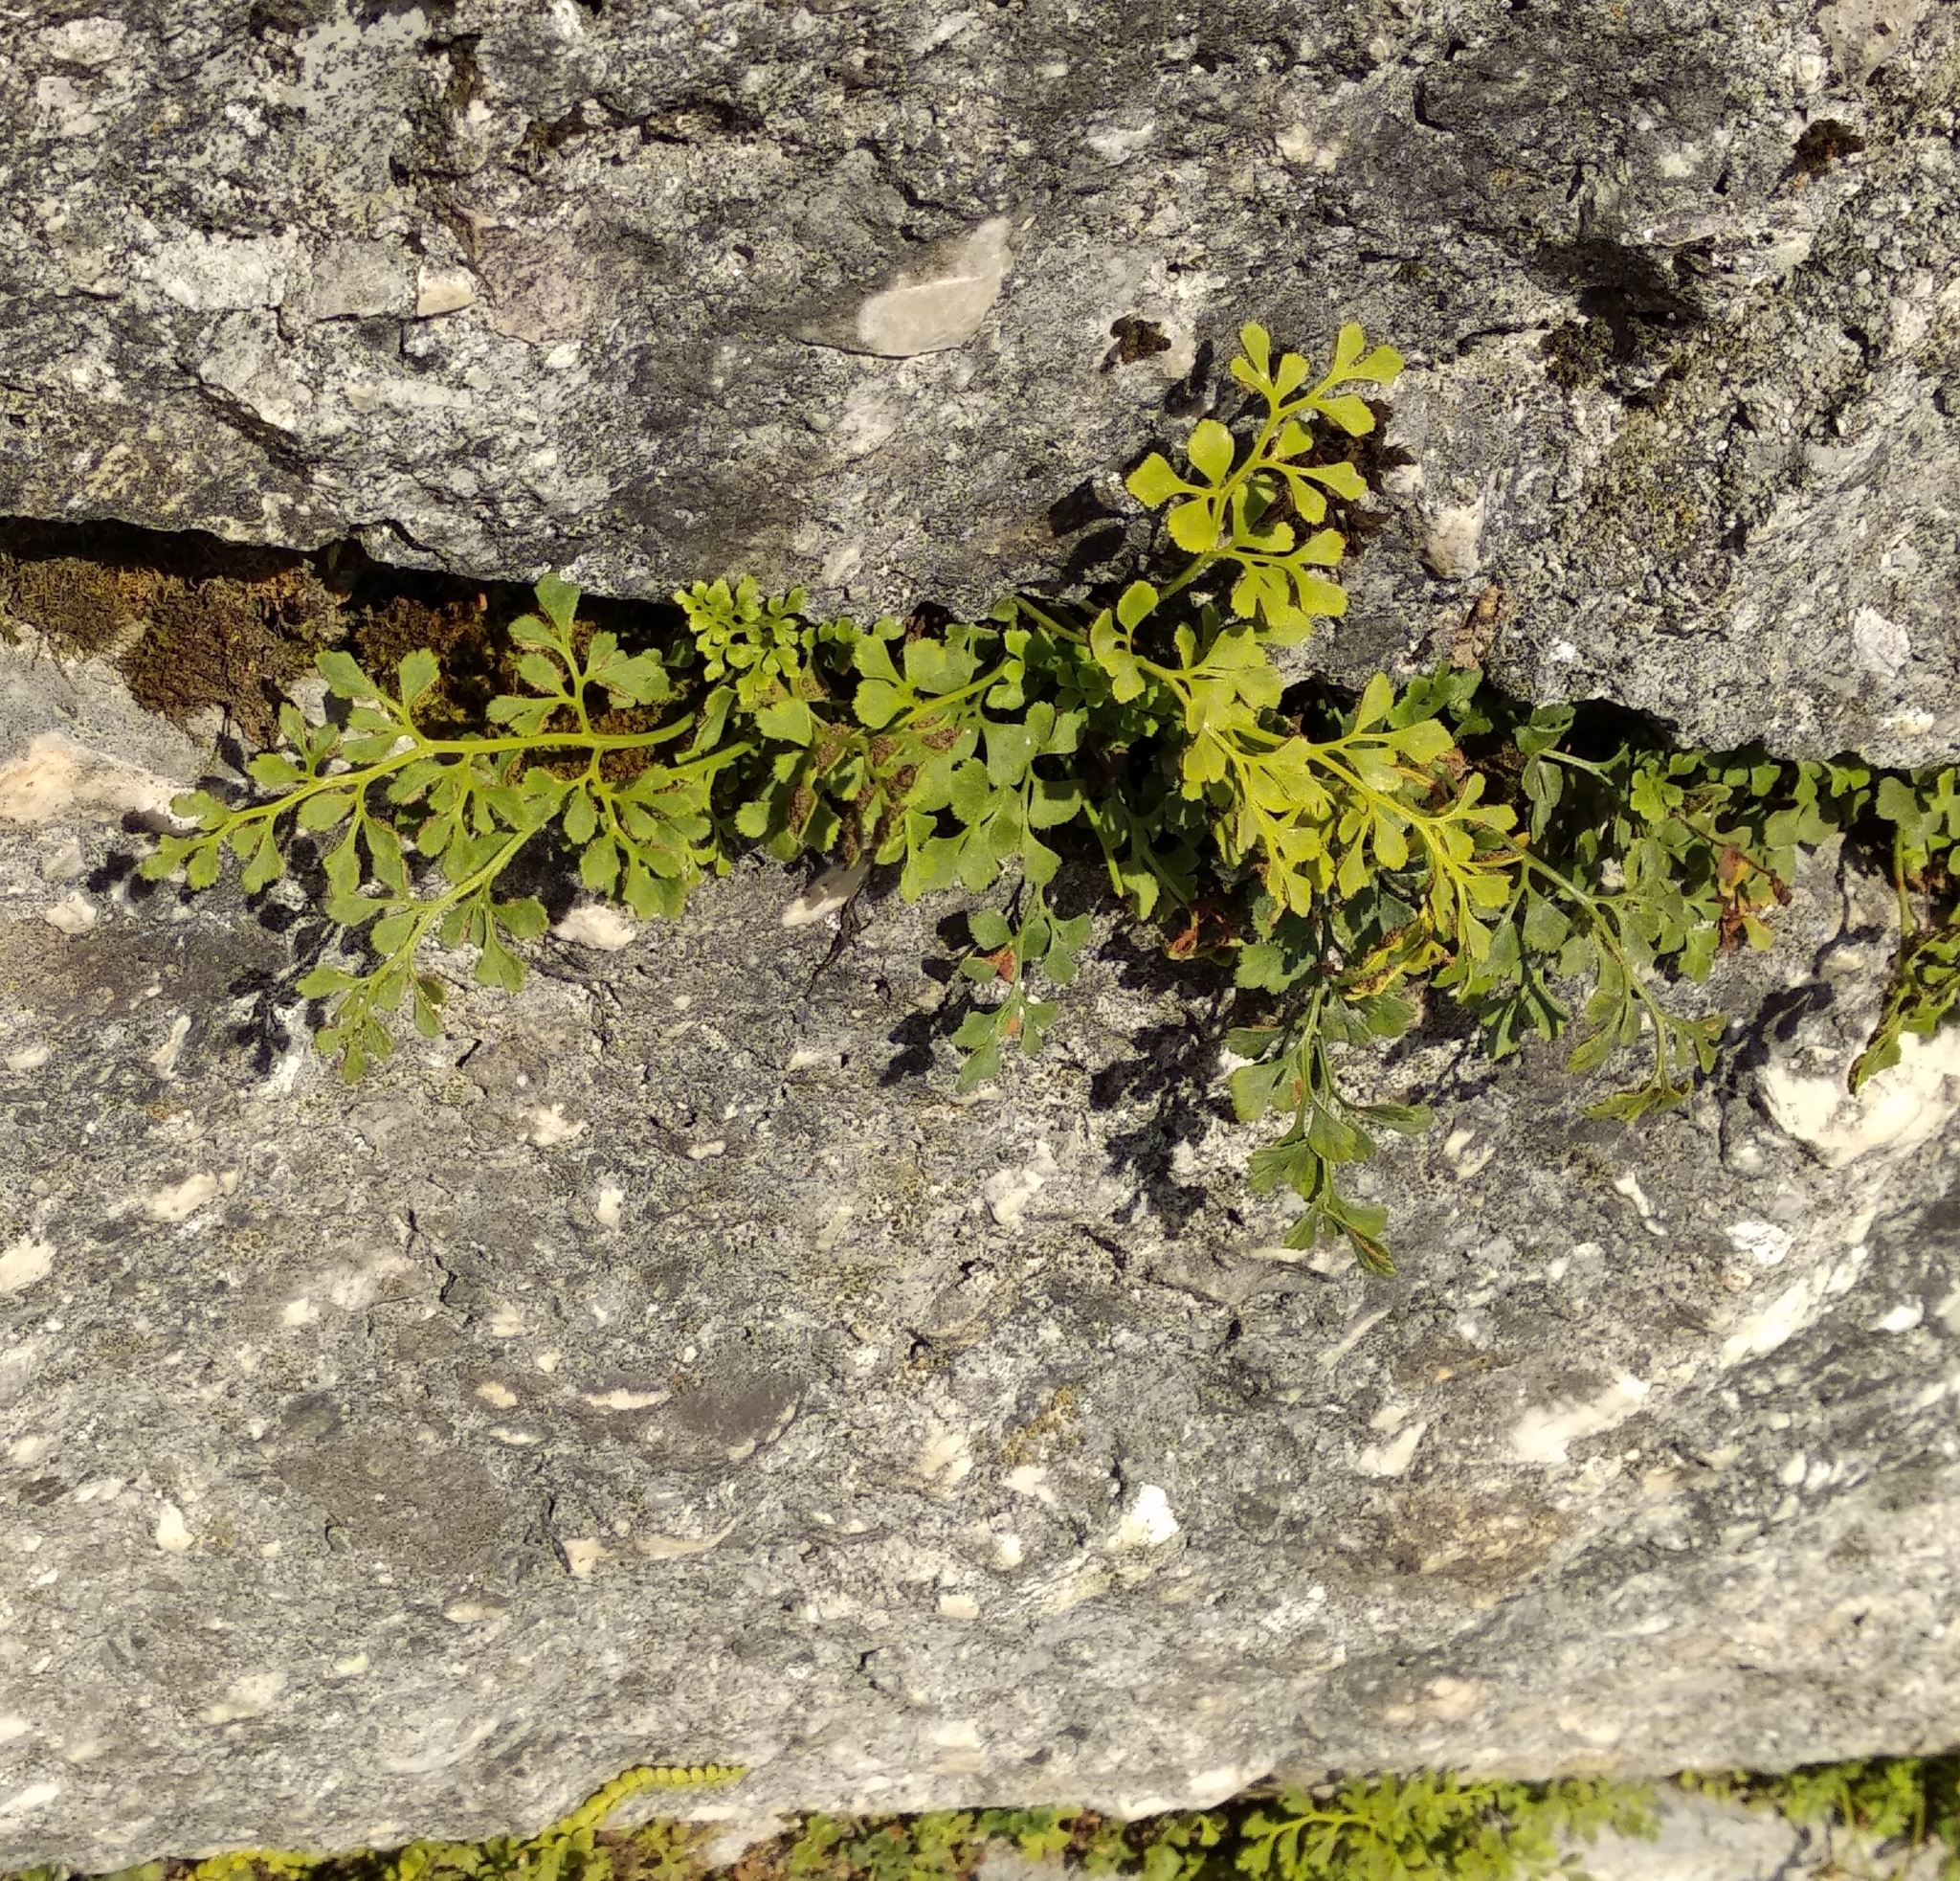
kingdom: Plantae
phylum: Tracheophyta
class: Polypodiopsida
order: Polypodiales
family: Aspleniaceae
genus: Asplenium
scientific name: Asplenium ruta-muraria
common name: Wall-rue
